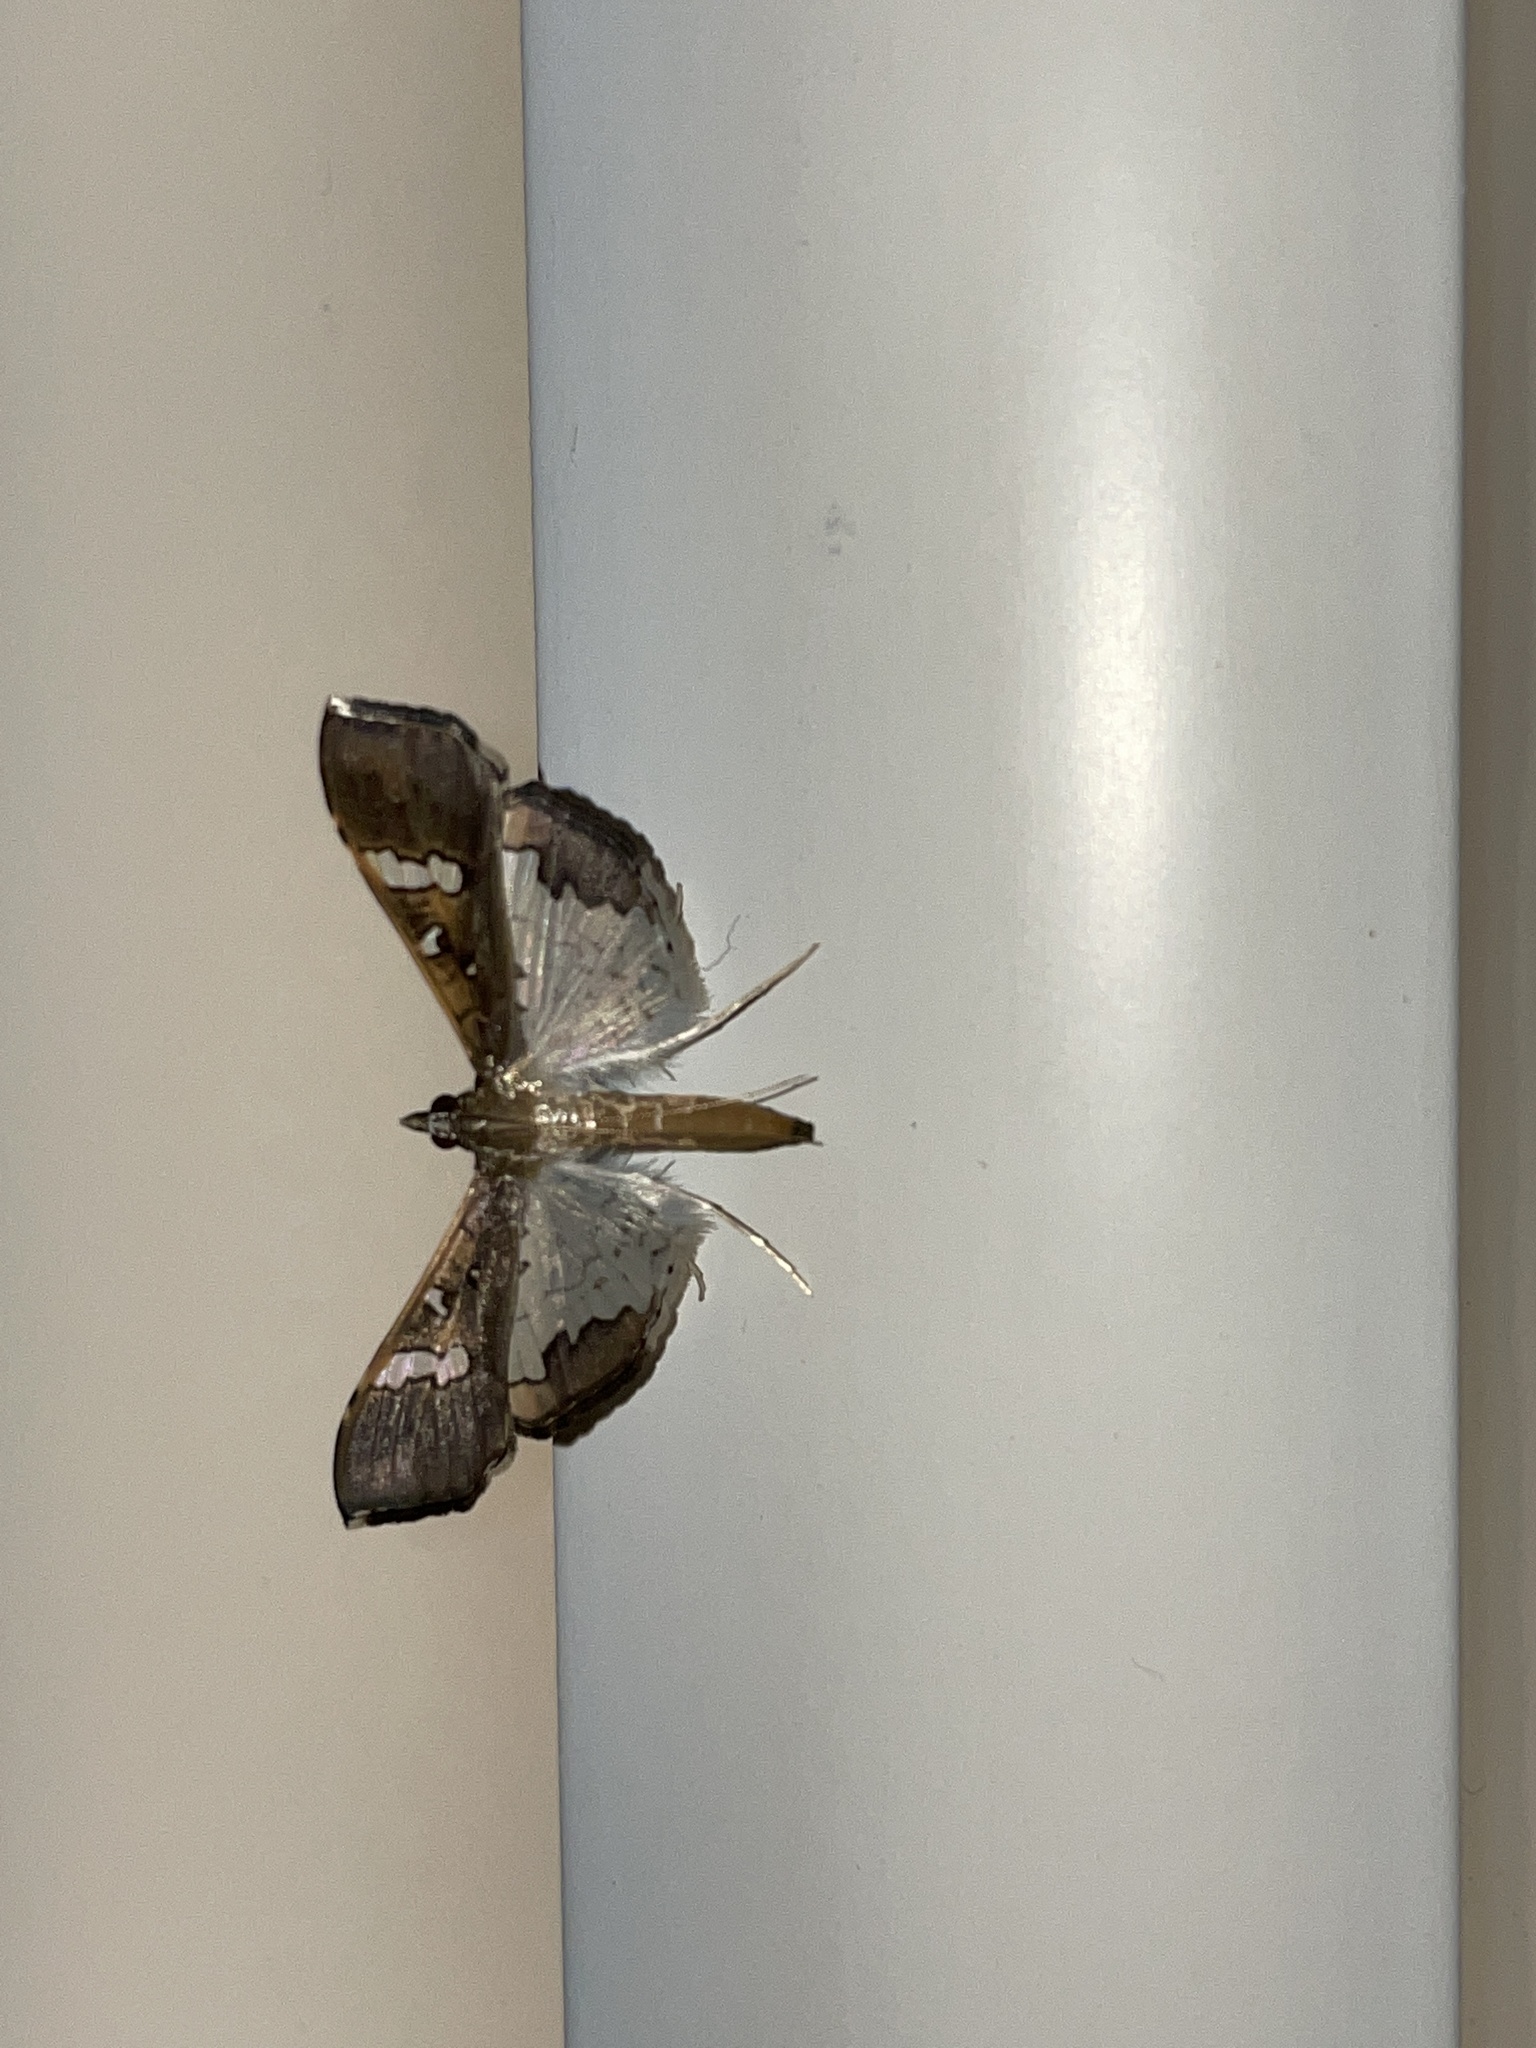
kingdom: Animalia
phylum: Arthropoda
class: Insecta
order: Lepidoptera
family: Crambidae
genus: Maruca
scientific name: Maruca vitrata
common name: Maruca pod borer
